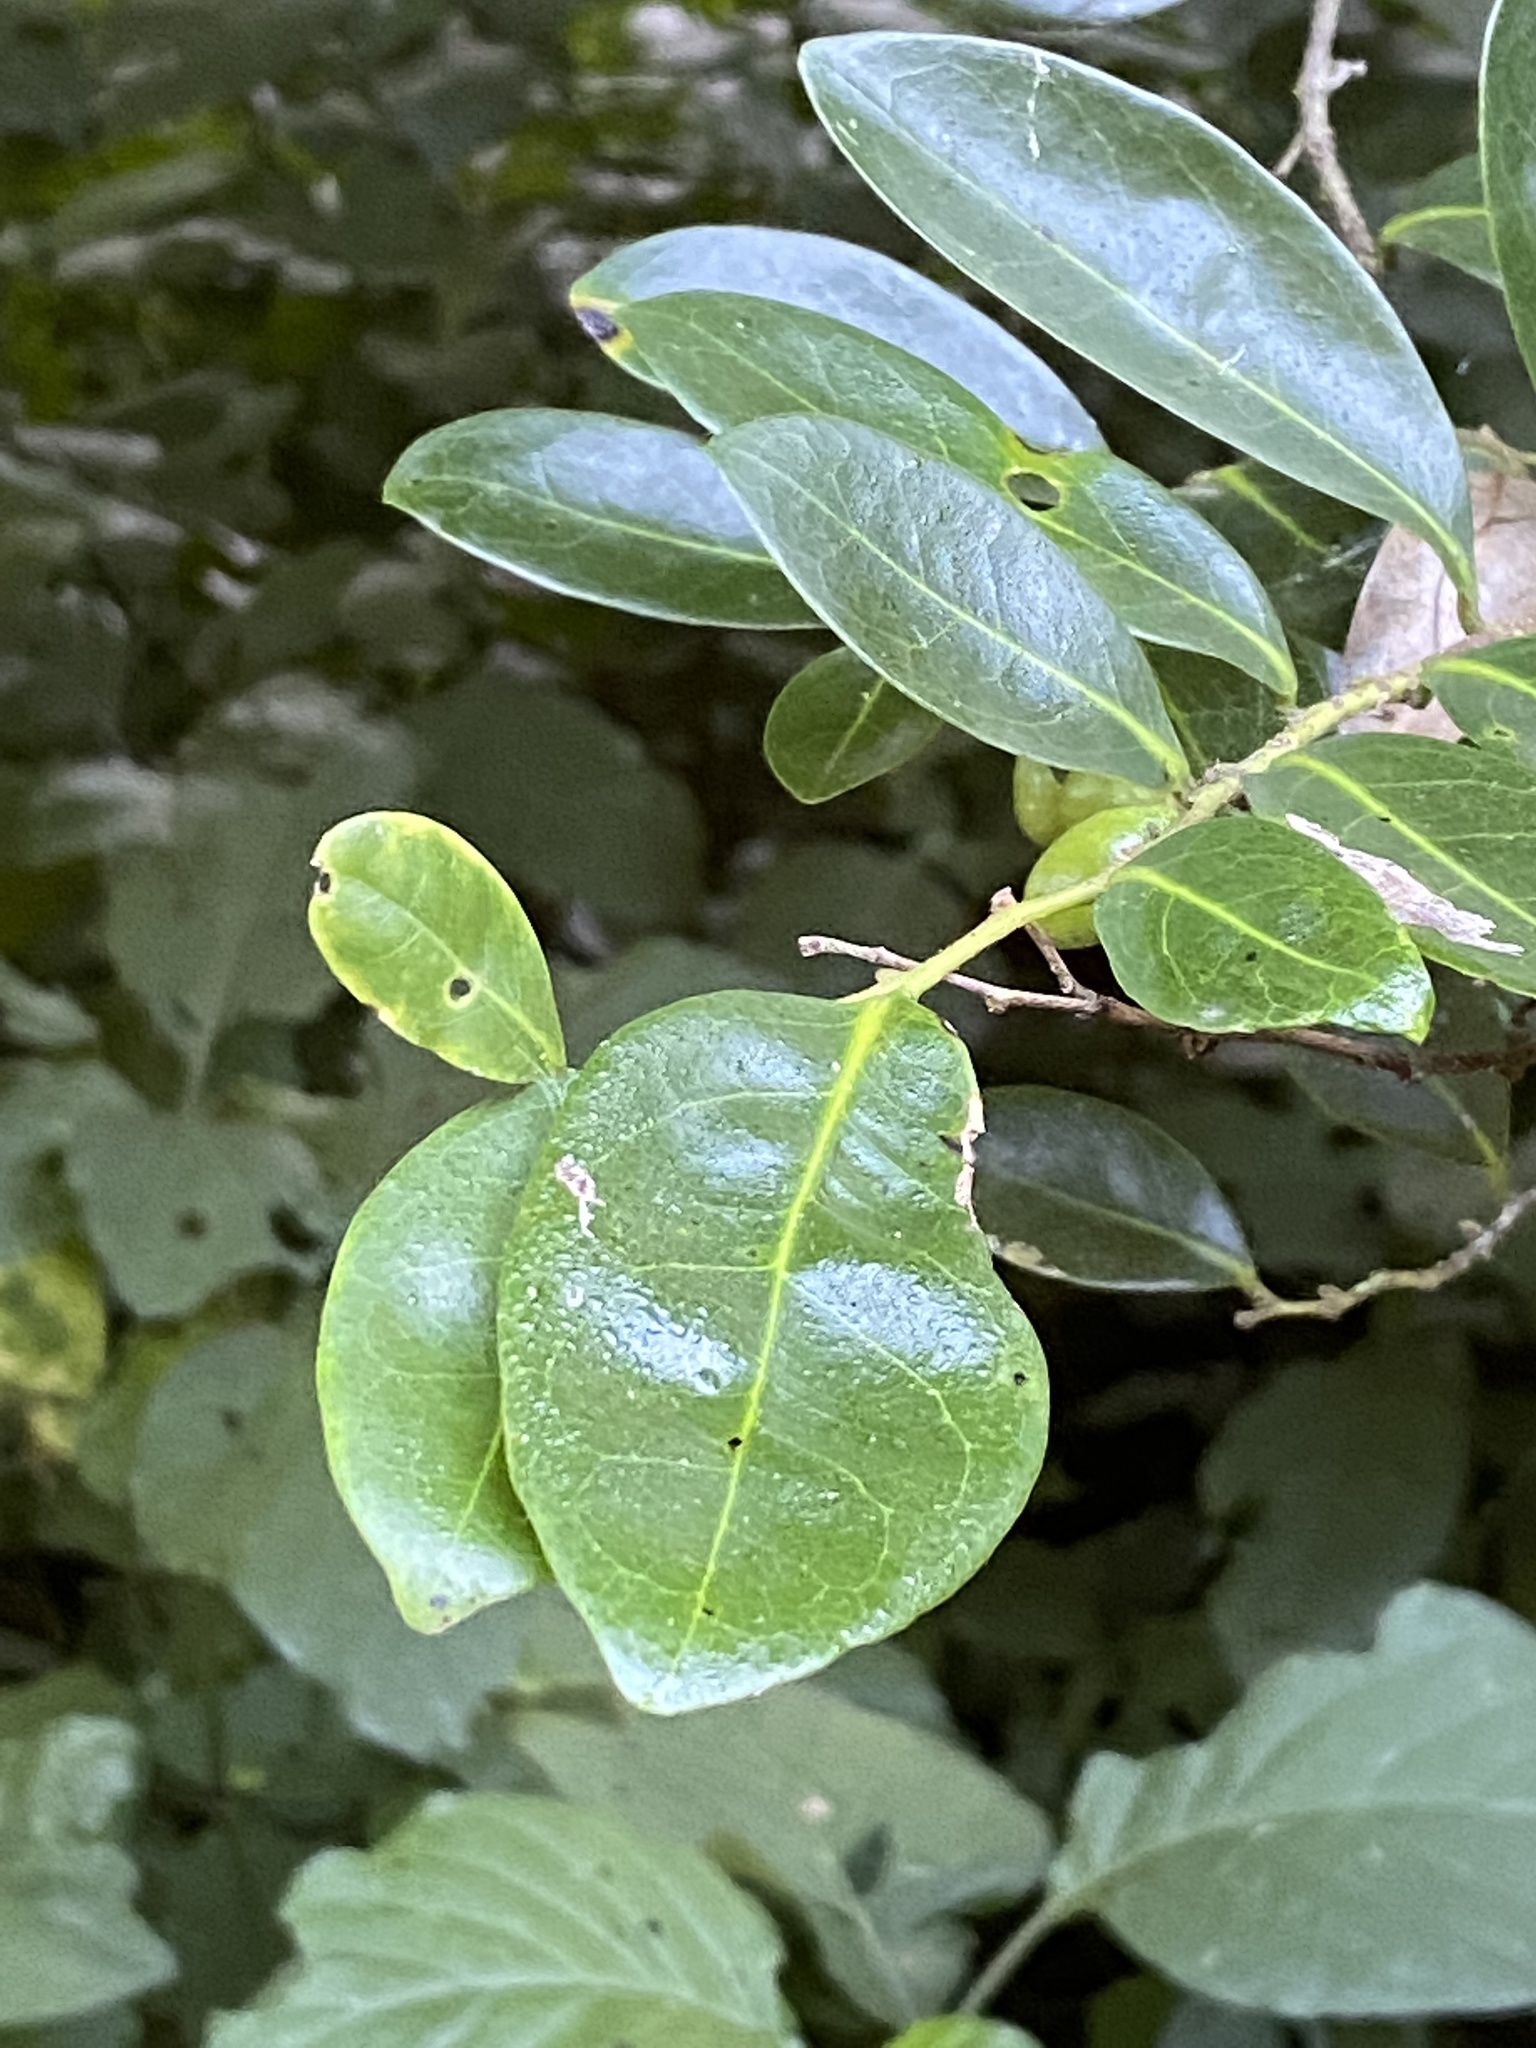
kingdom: Plantae
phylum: Tracheophyta
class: Magnoliopsida
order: Gentianales
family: Rubiaceae
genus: Rothmannia
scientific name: Rothmannia globosa
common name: September bells
